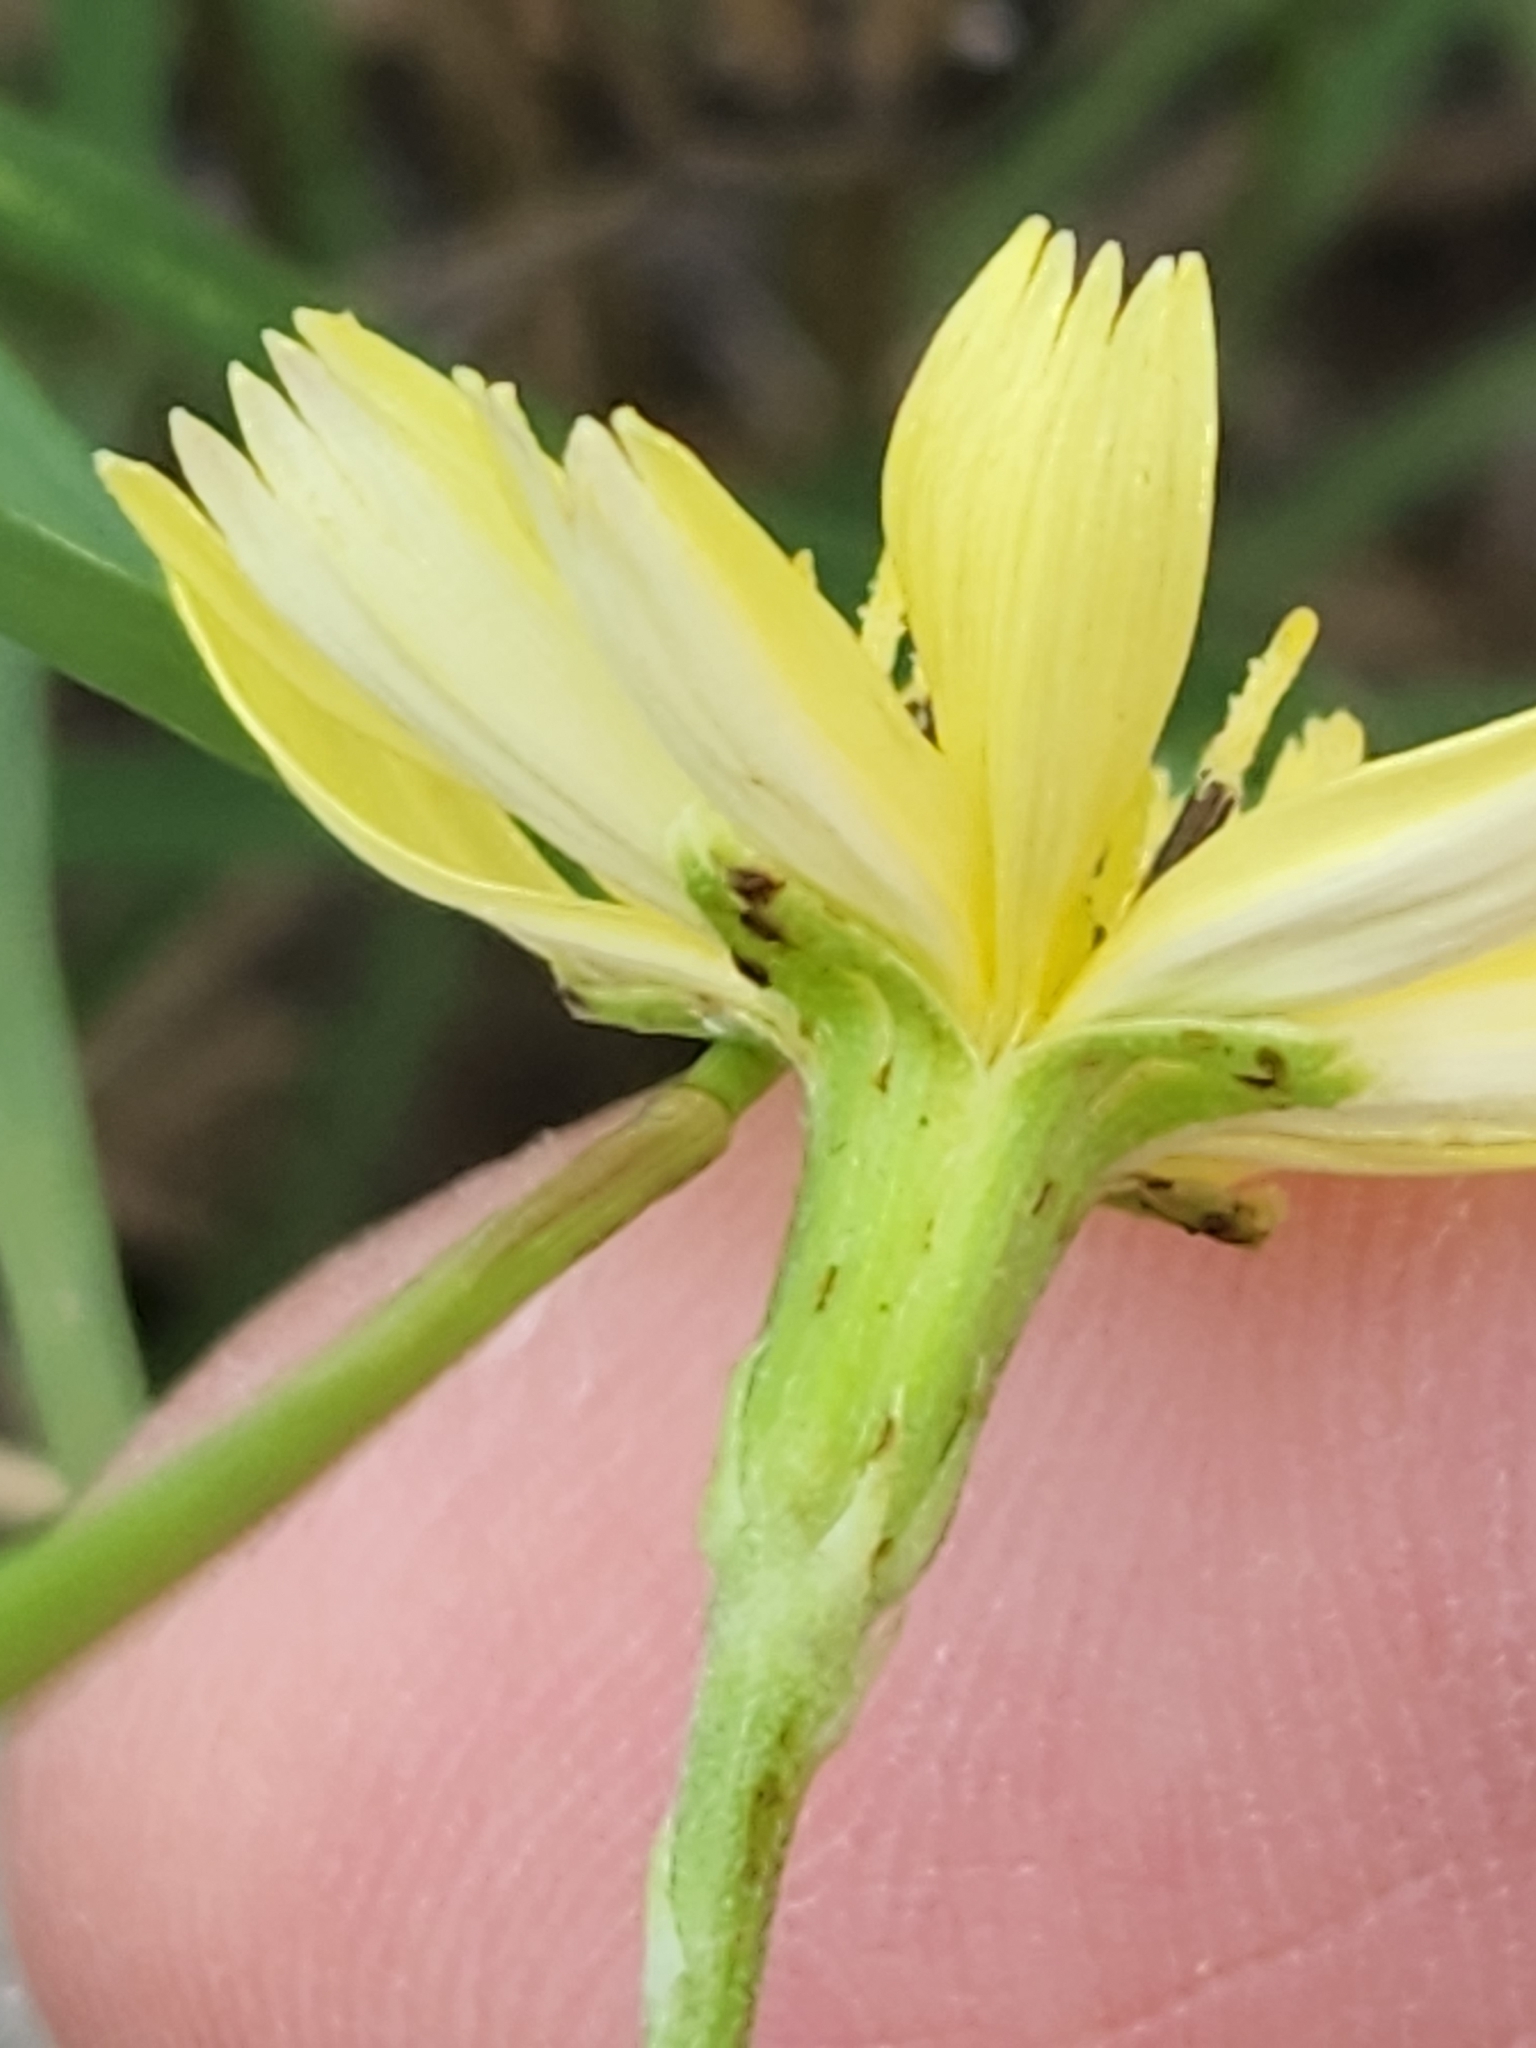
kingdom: Plantae
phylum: Tracheophyta
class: Magnoliopsida
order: Asterales
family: Asteraceae
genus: Pyrrhopappus
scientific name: Pyrrhopappus pauciflorus
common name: Texas false dandelion
